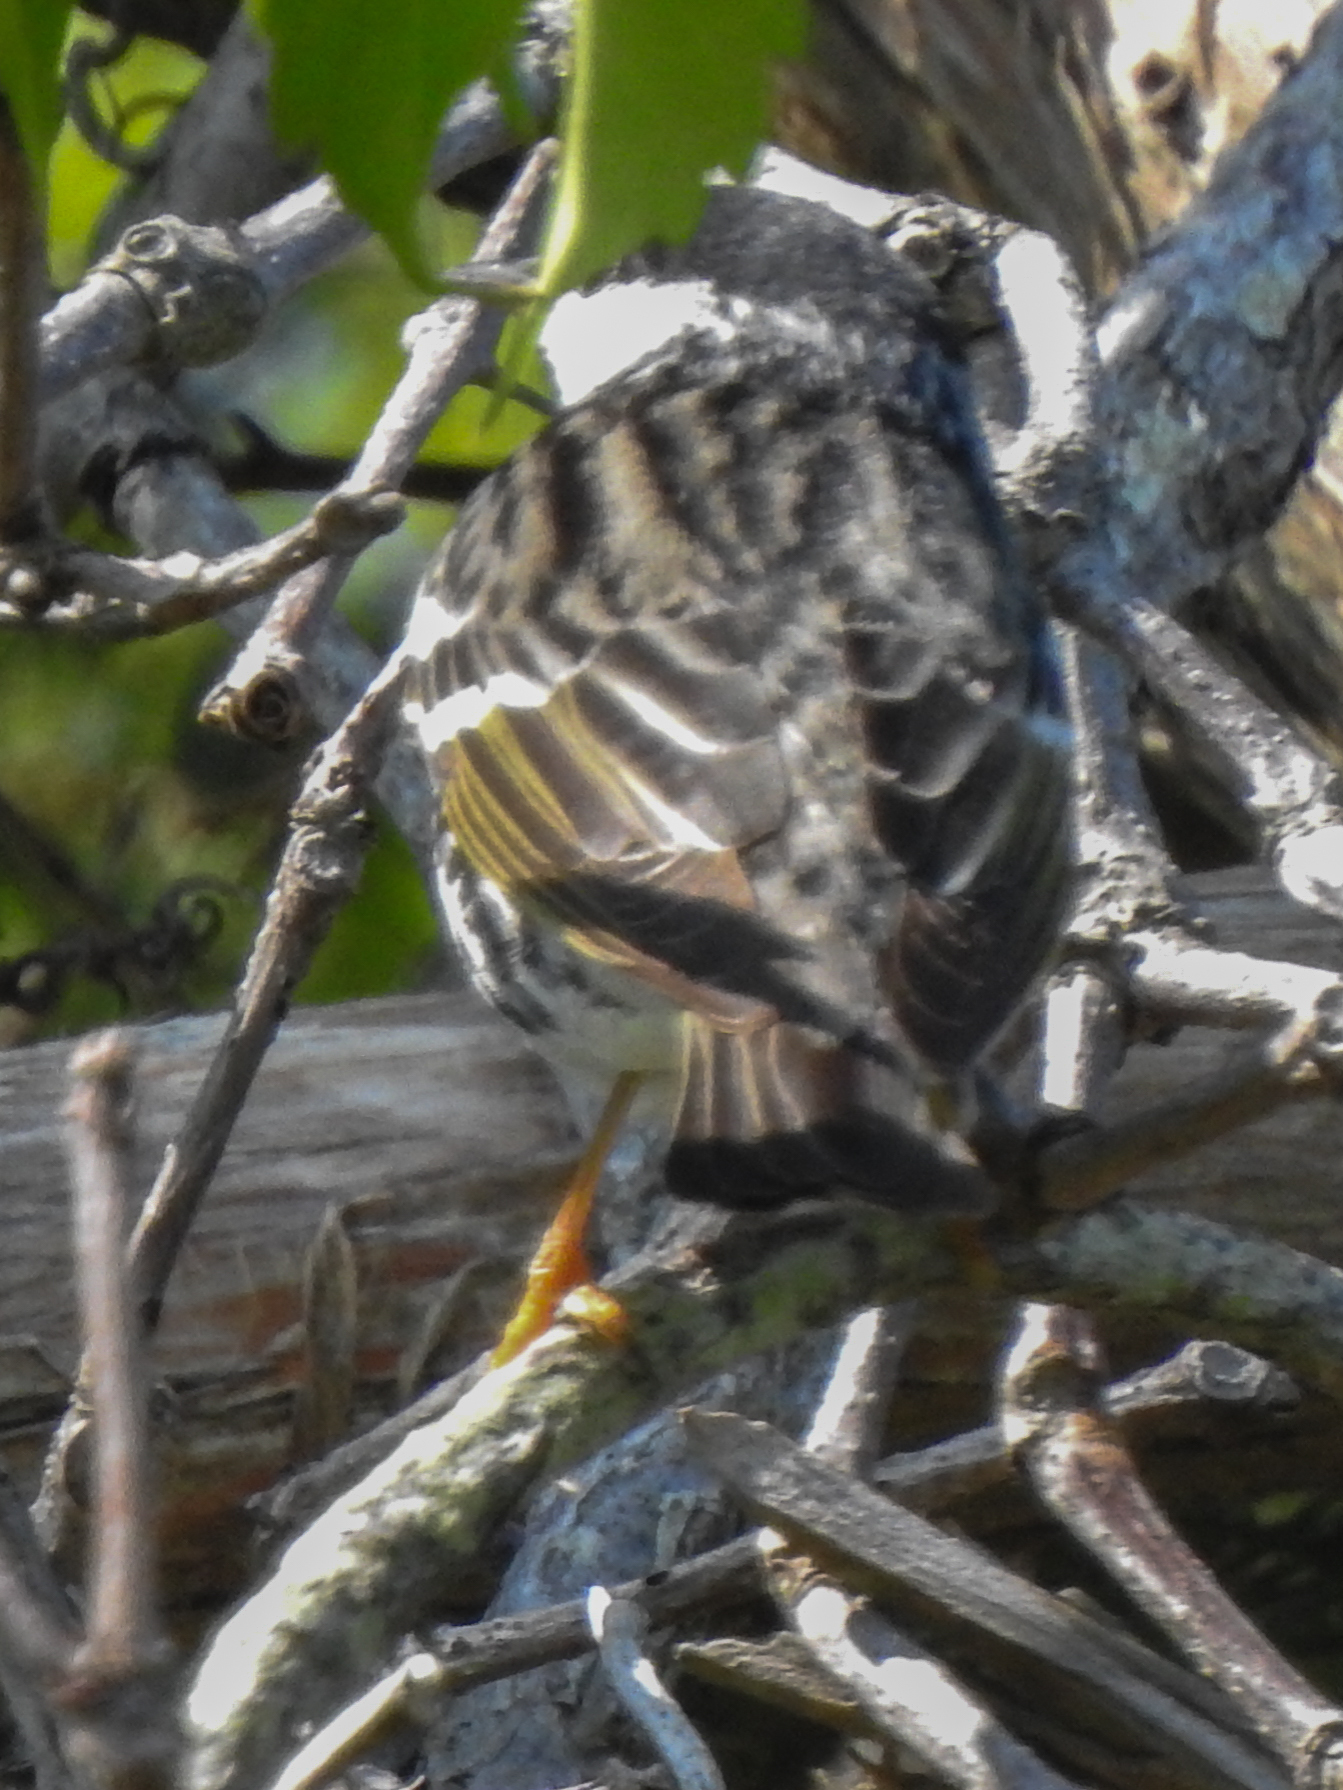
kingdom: Animalia
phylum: Chordata
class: Aves
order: Passeriformes
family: Parulidae
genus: Setophaga
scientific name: Setophaga striata
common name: Blackpoll warbler
